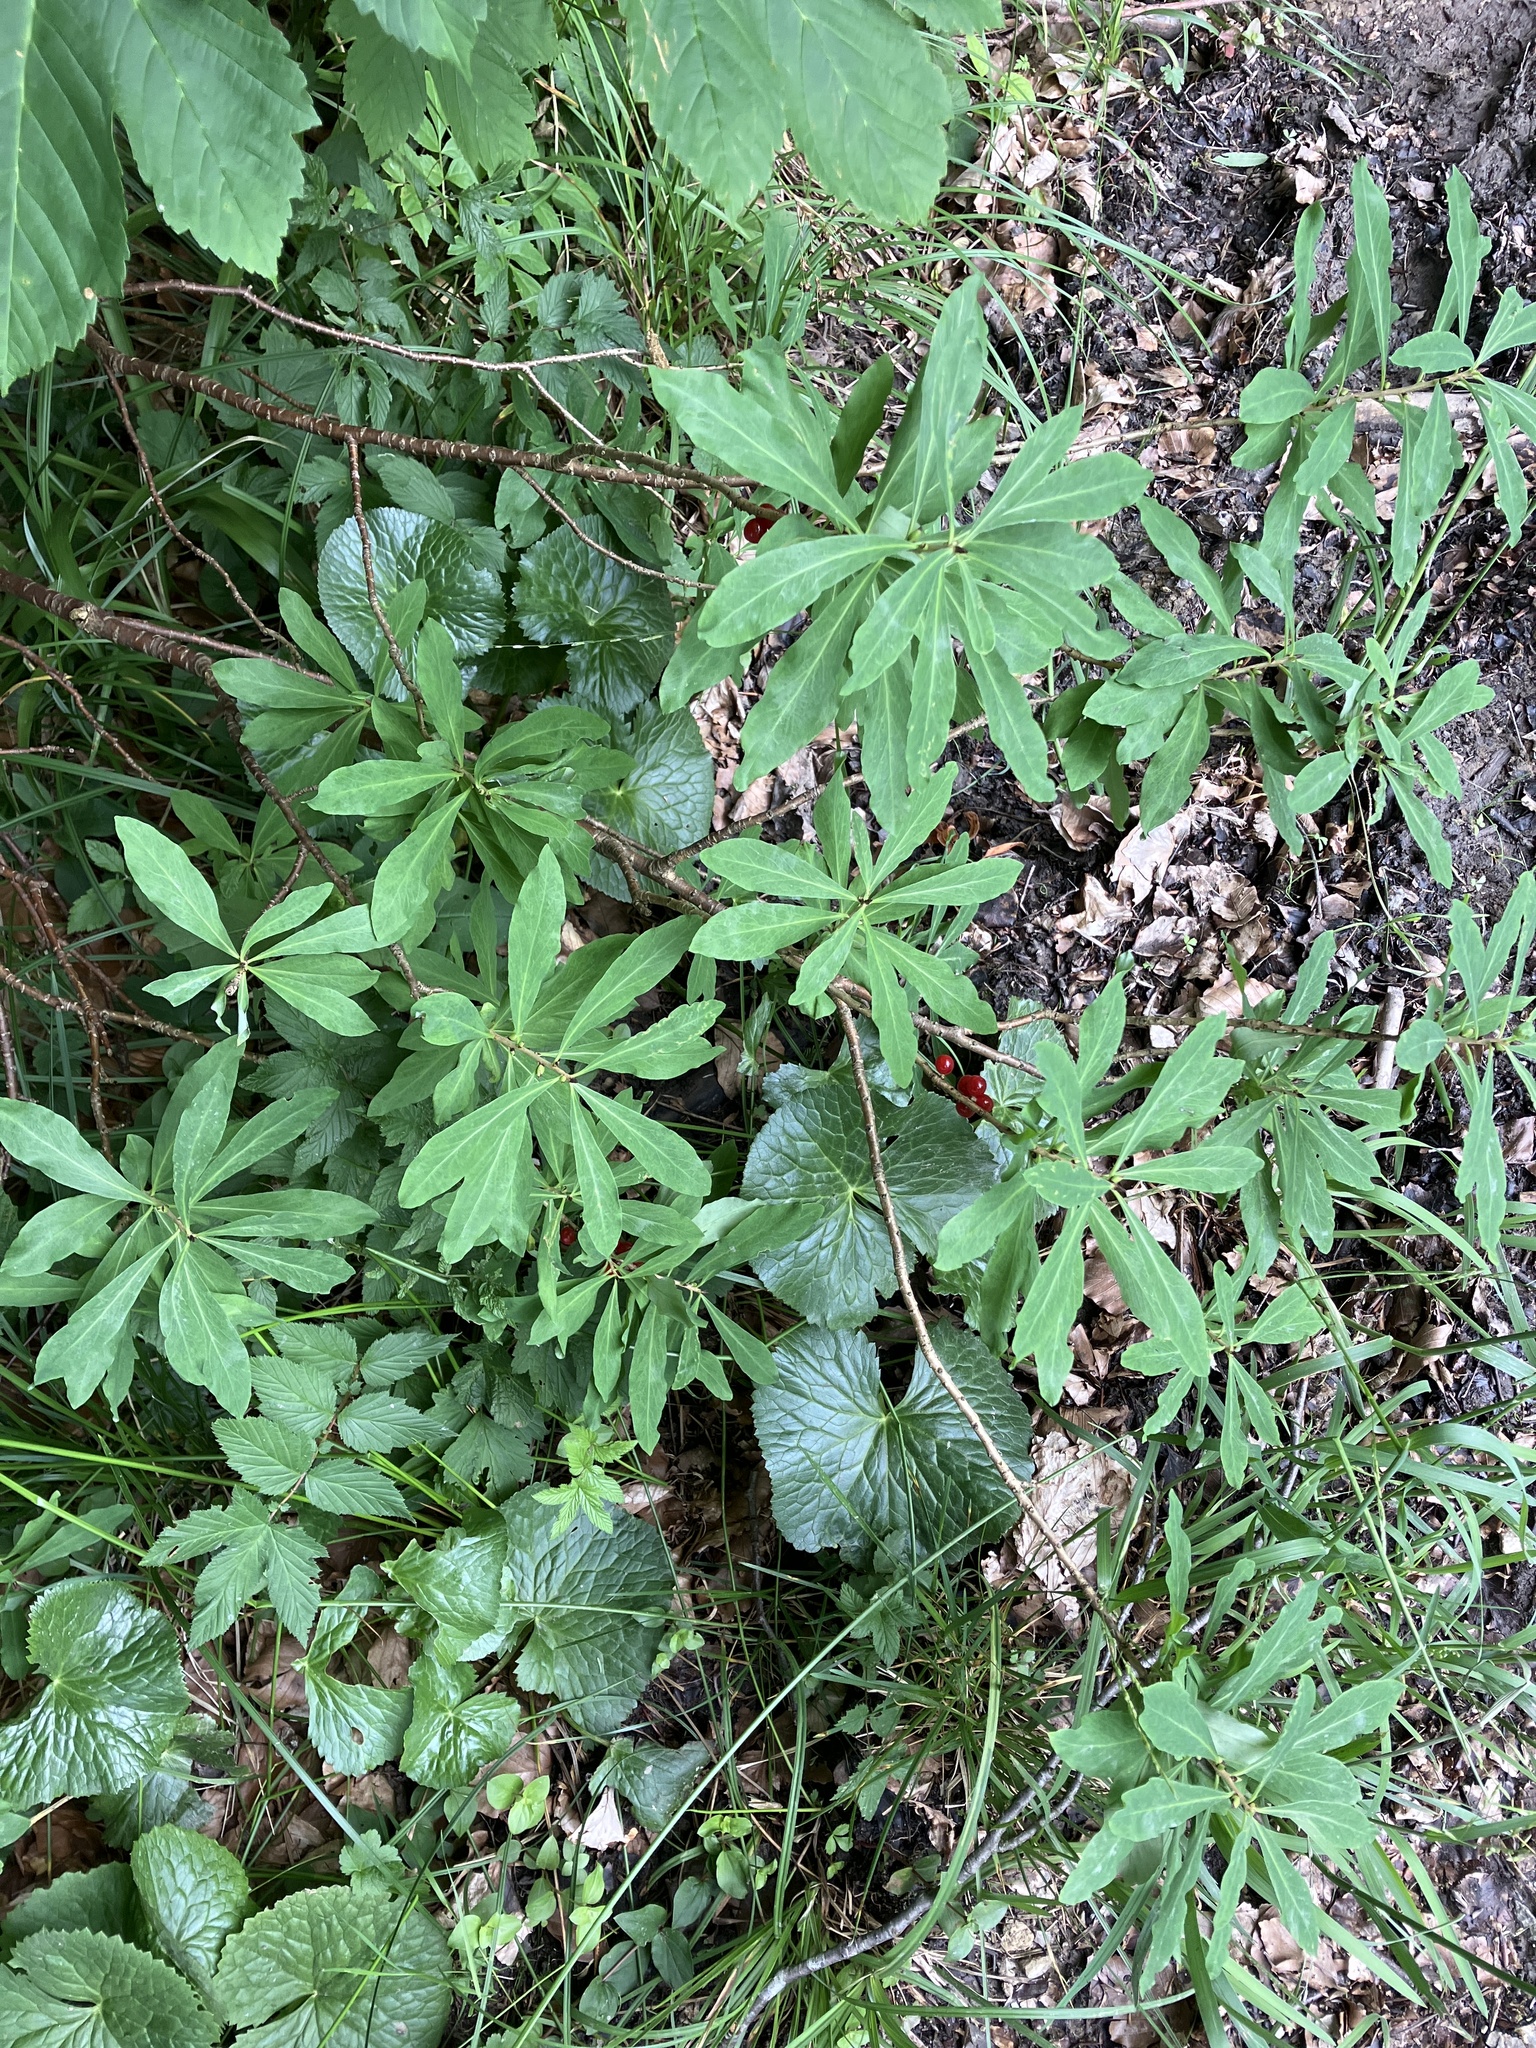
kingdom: Plantae
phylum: Tracheophyta
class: Magnoliopsida
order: Malvales
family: Thymelaeaceae
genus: Daphne
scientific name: Daphne mezereum
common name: Mezereon
